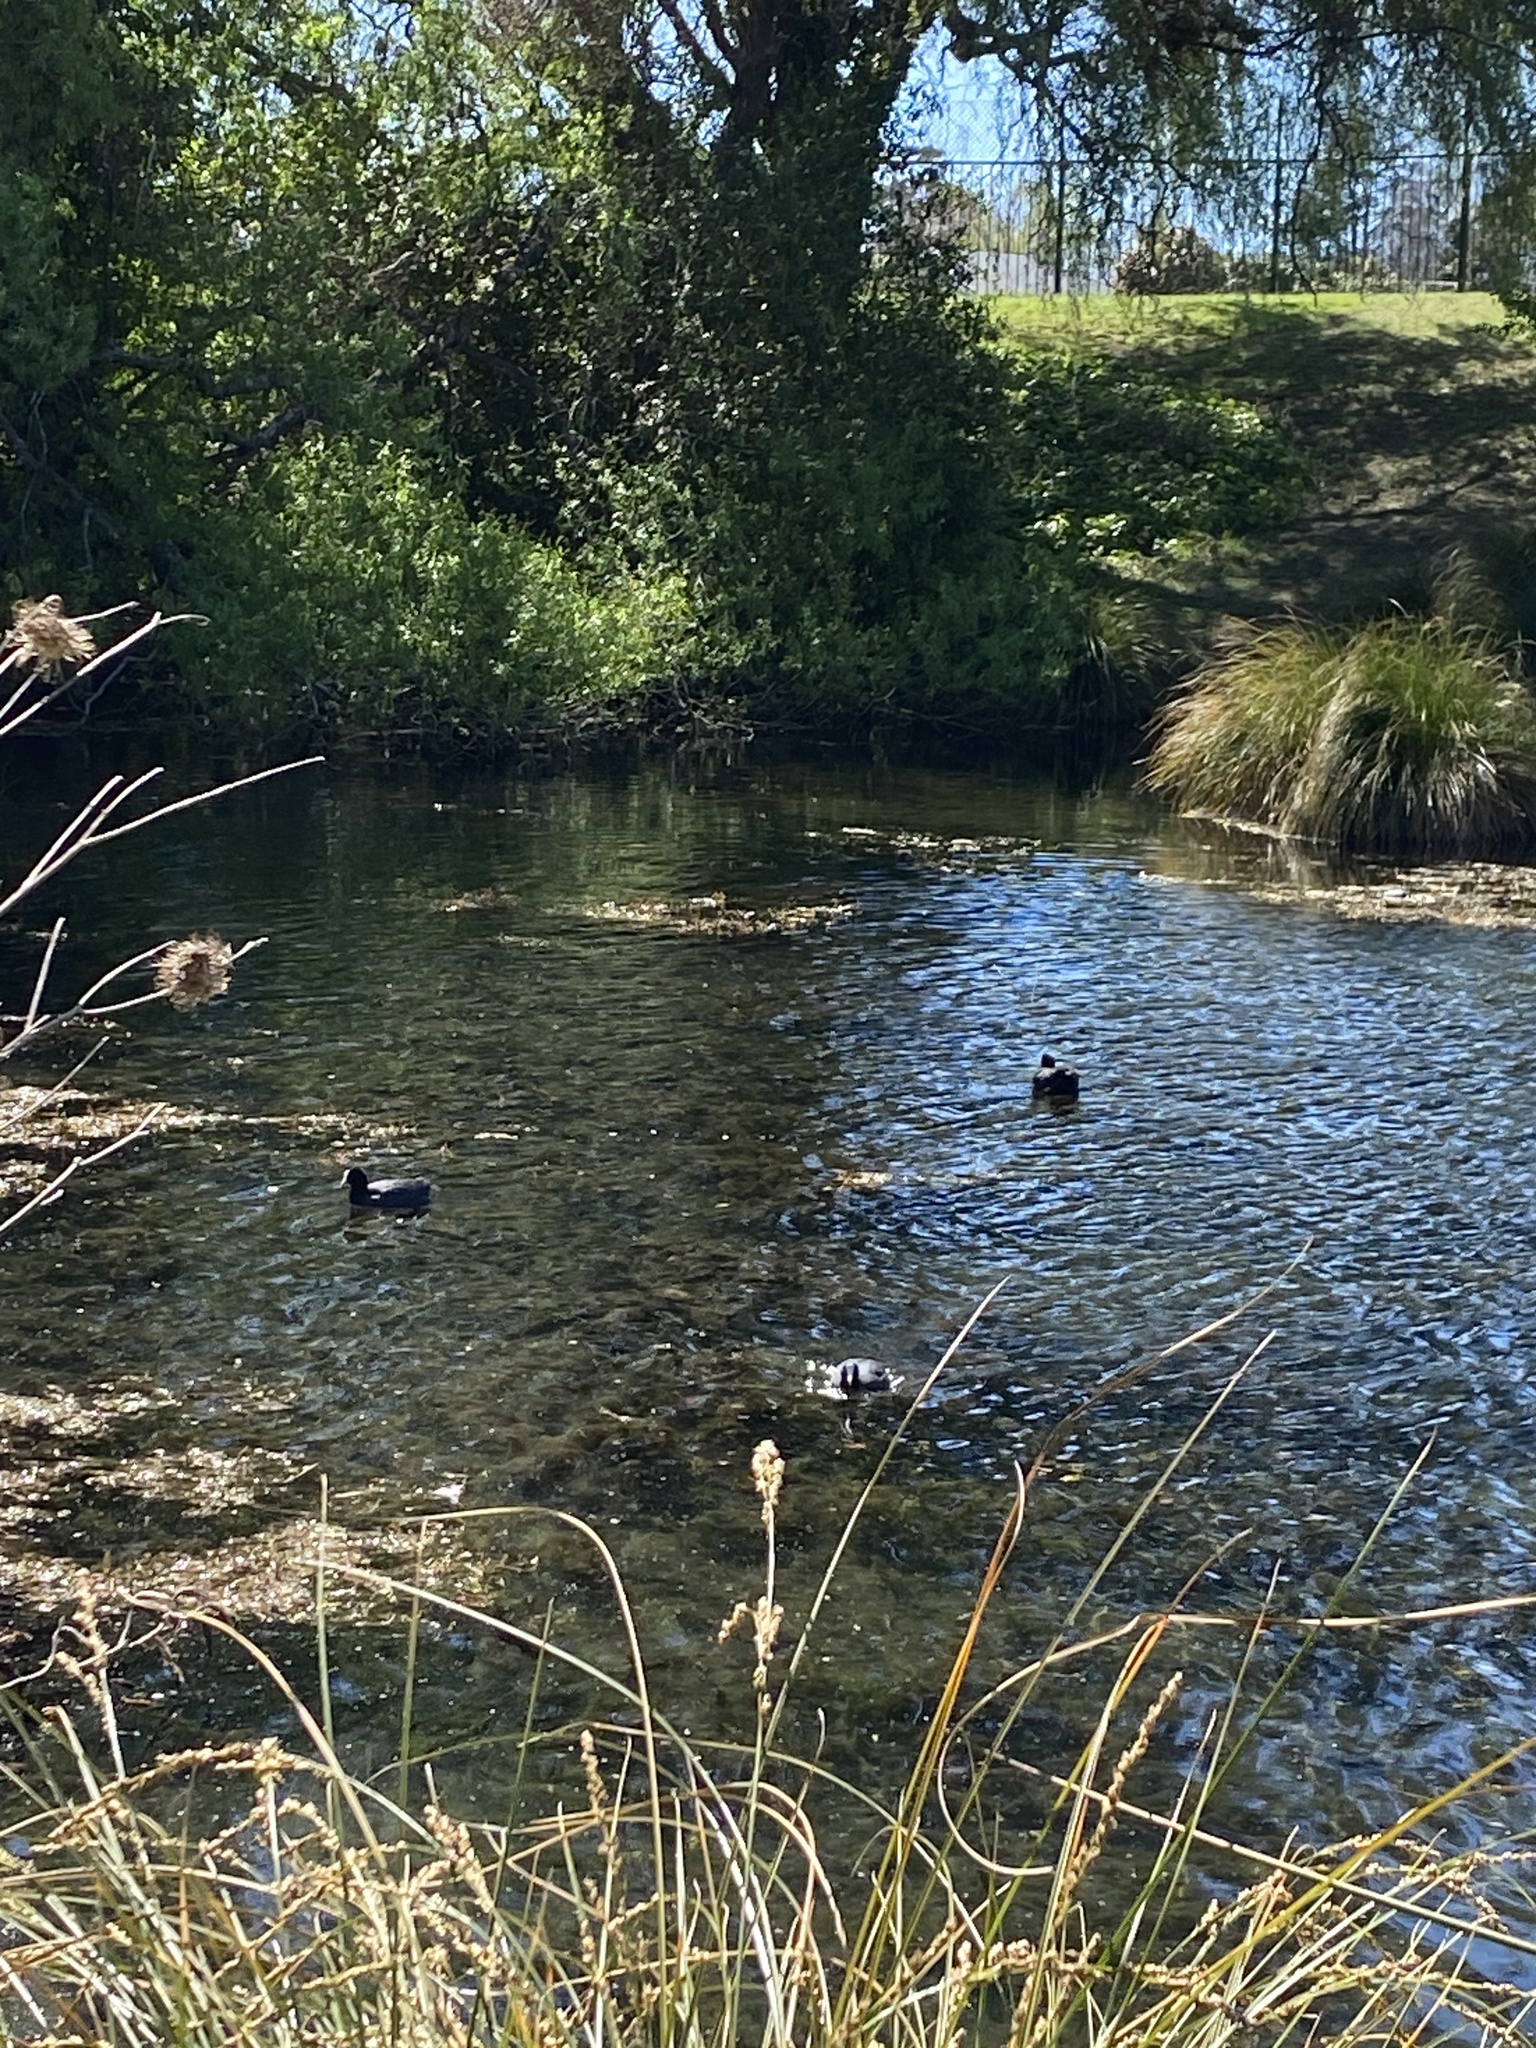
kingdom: Animalia
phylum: Chordata
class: Aves
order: Gruiformes
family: Rallidae
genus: Fulica
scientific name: Fulica atra
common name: Eurasian coot
